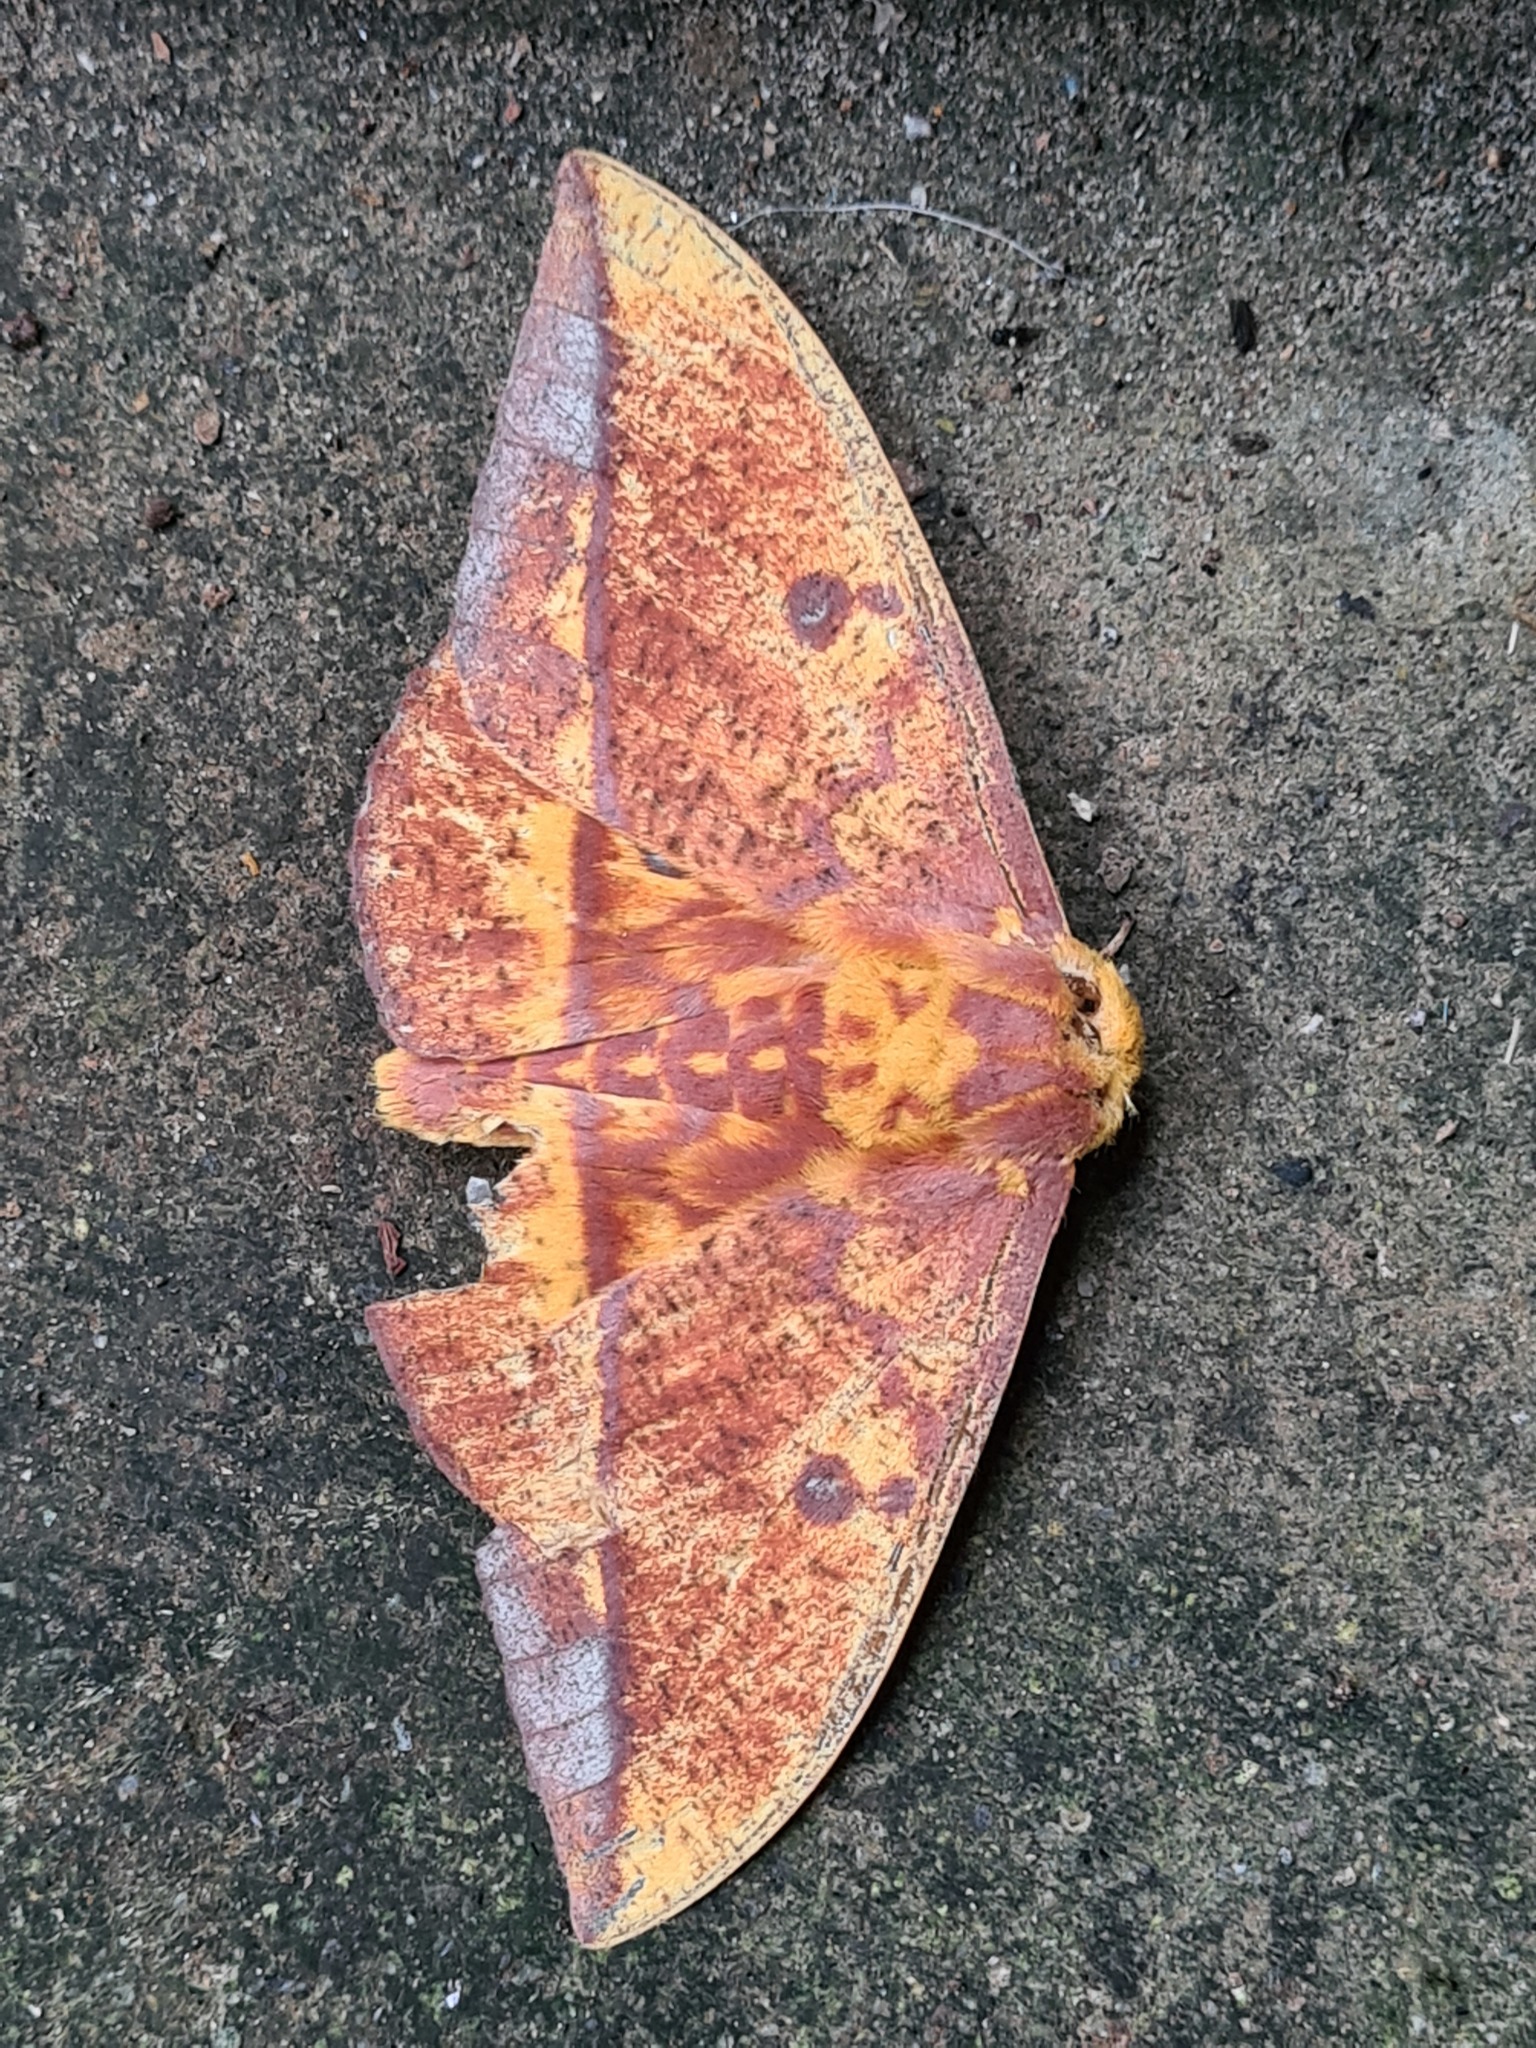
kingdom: Animalia
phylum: Arthropoda
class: Insecta
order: Lepidoptera
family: Saturniidae
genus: Eacles
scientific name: Eacles tyrannus
